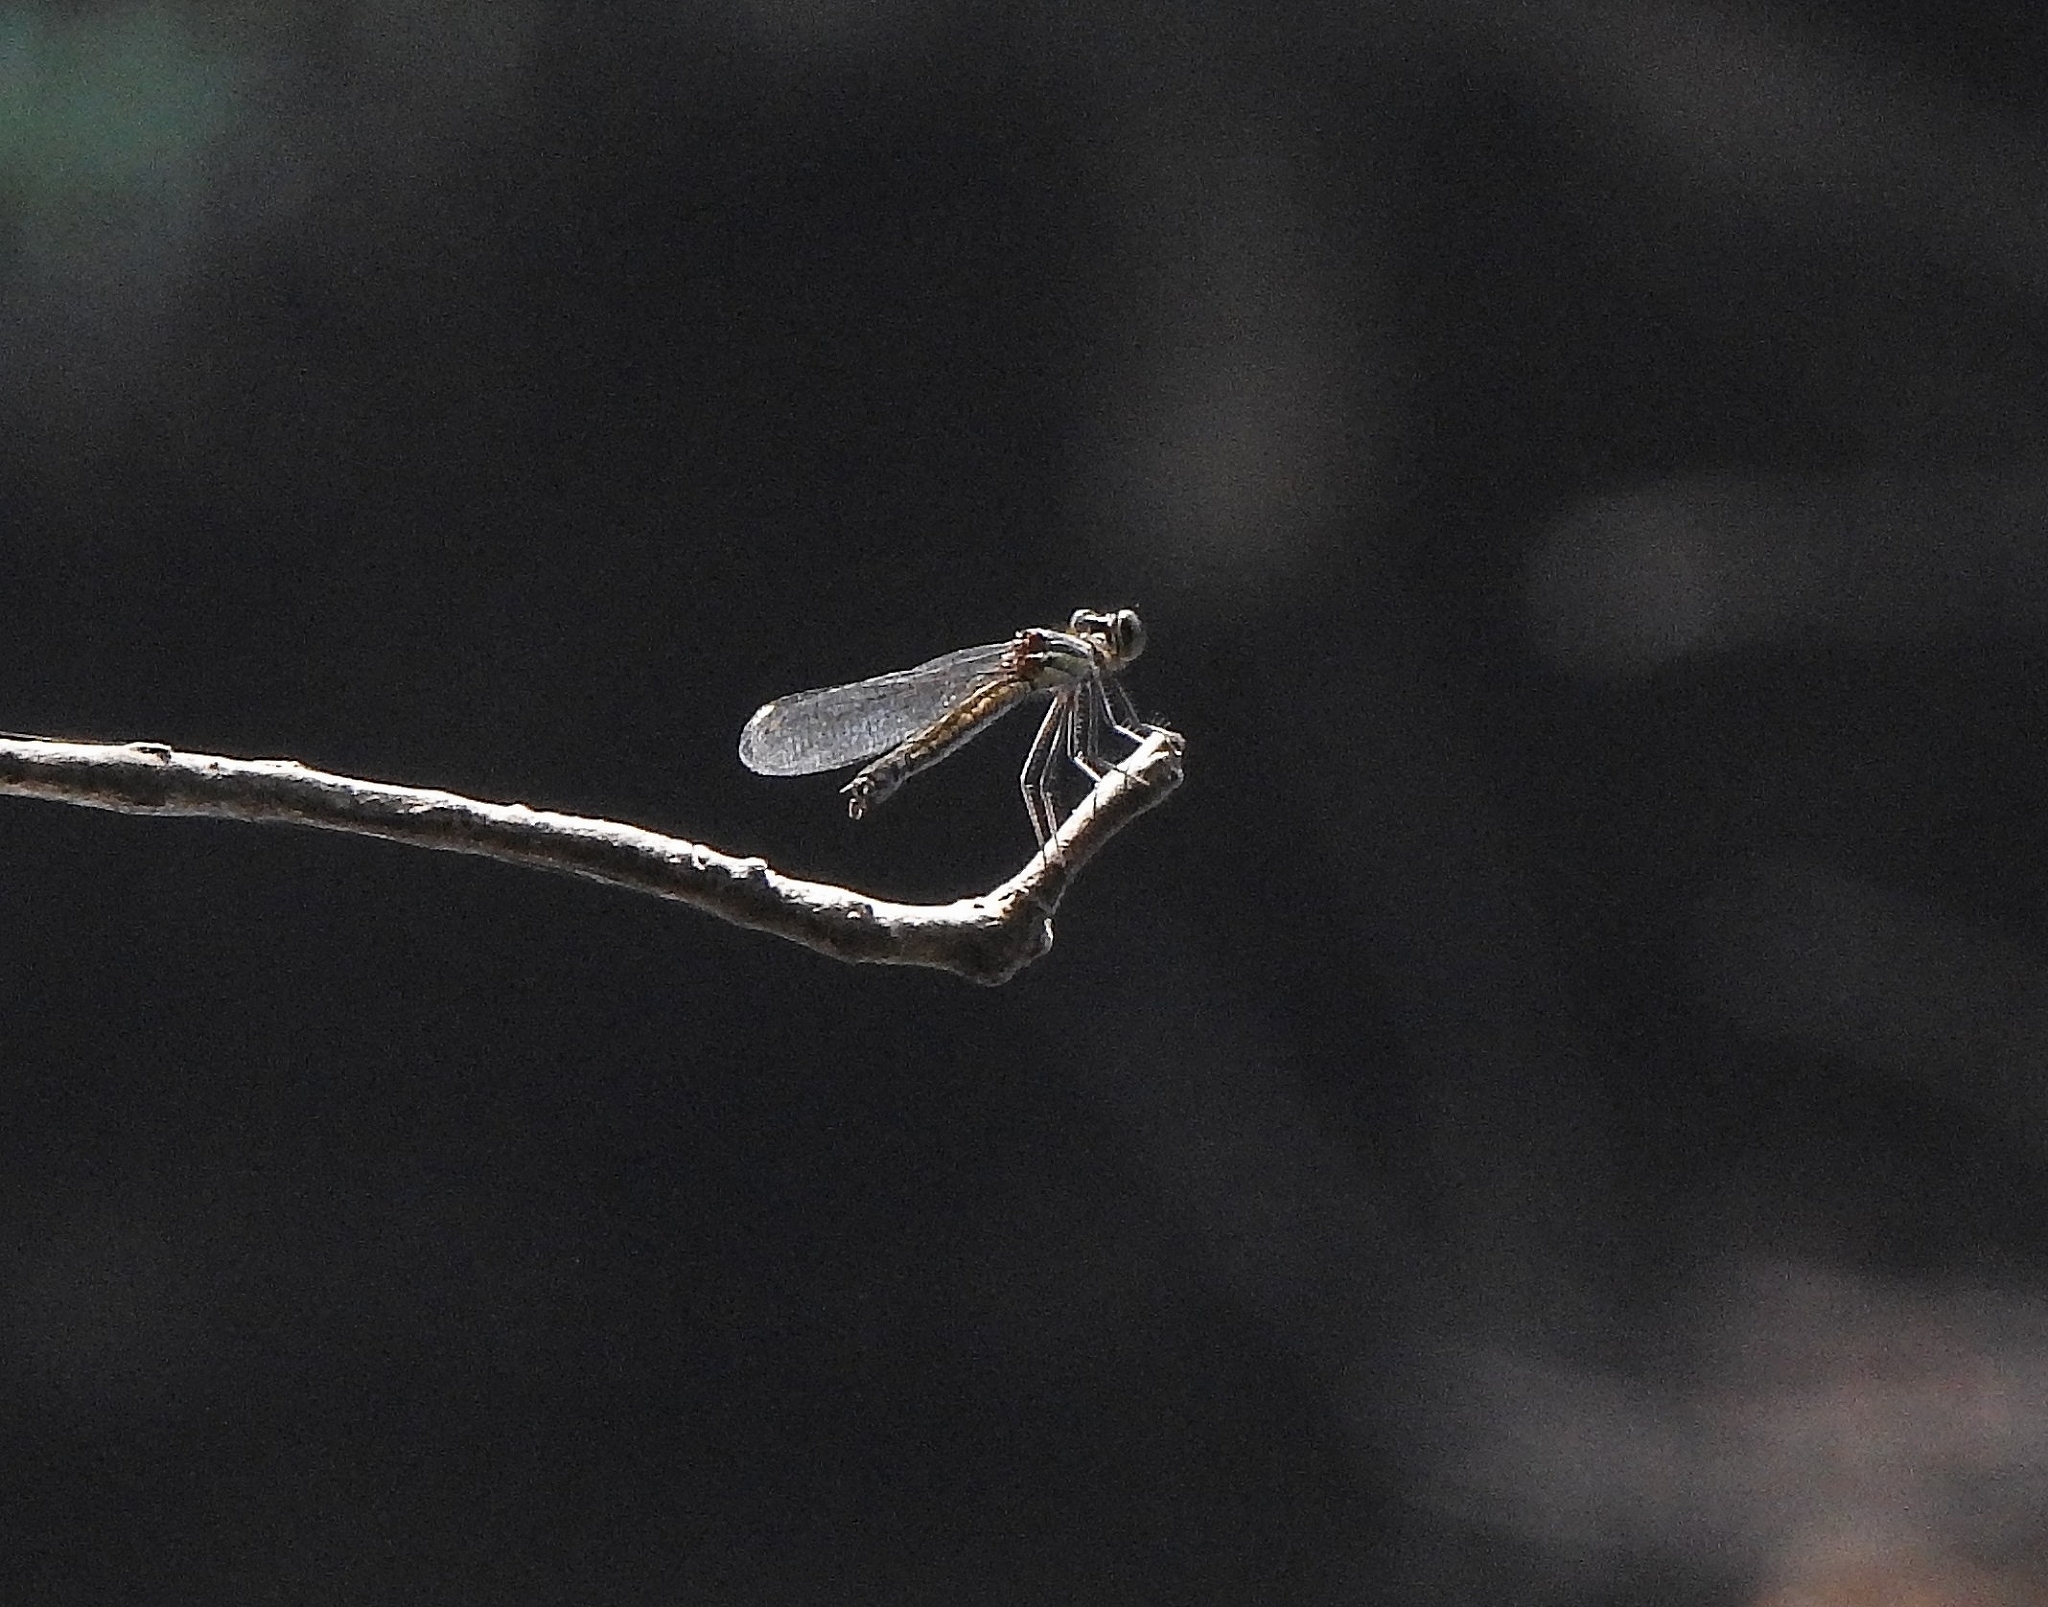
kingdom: Animalia
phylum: Arthropoda
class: Insecta
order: Odonata
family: Chlorocyphidae
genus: Libellago
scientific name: Libellago indica
